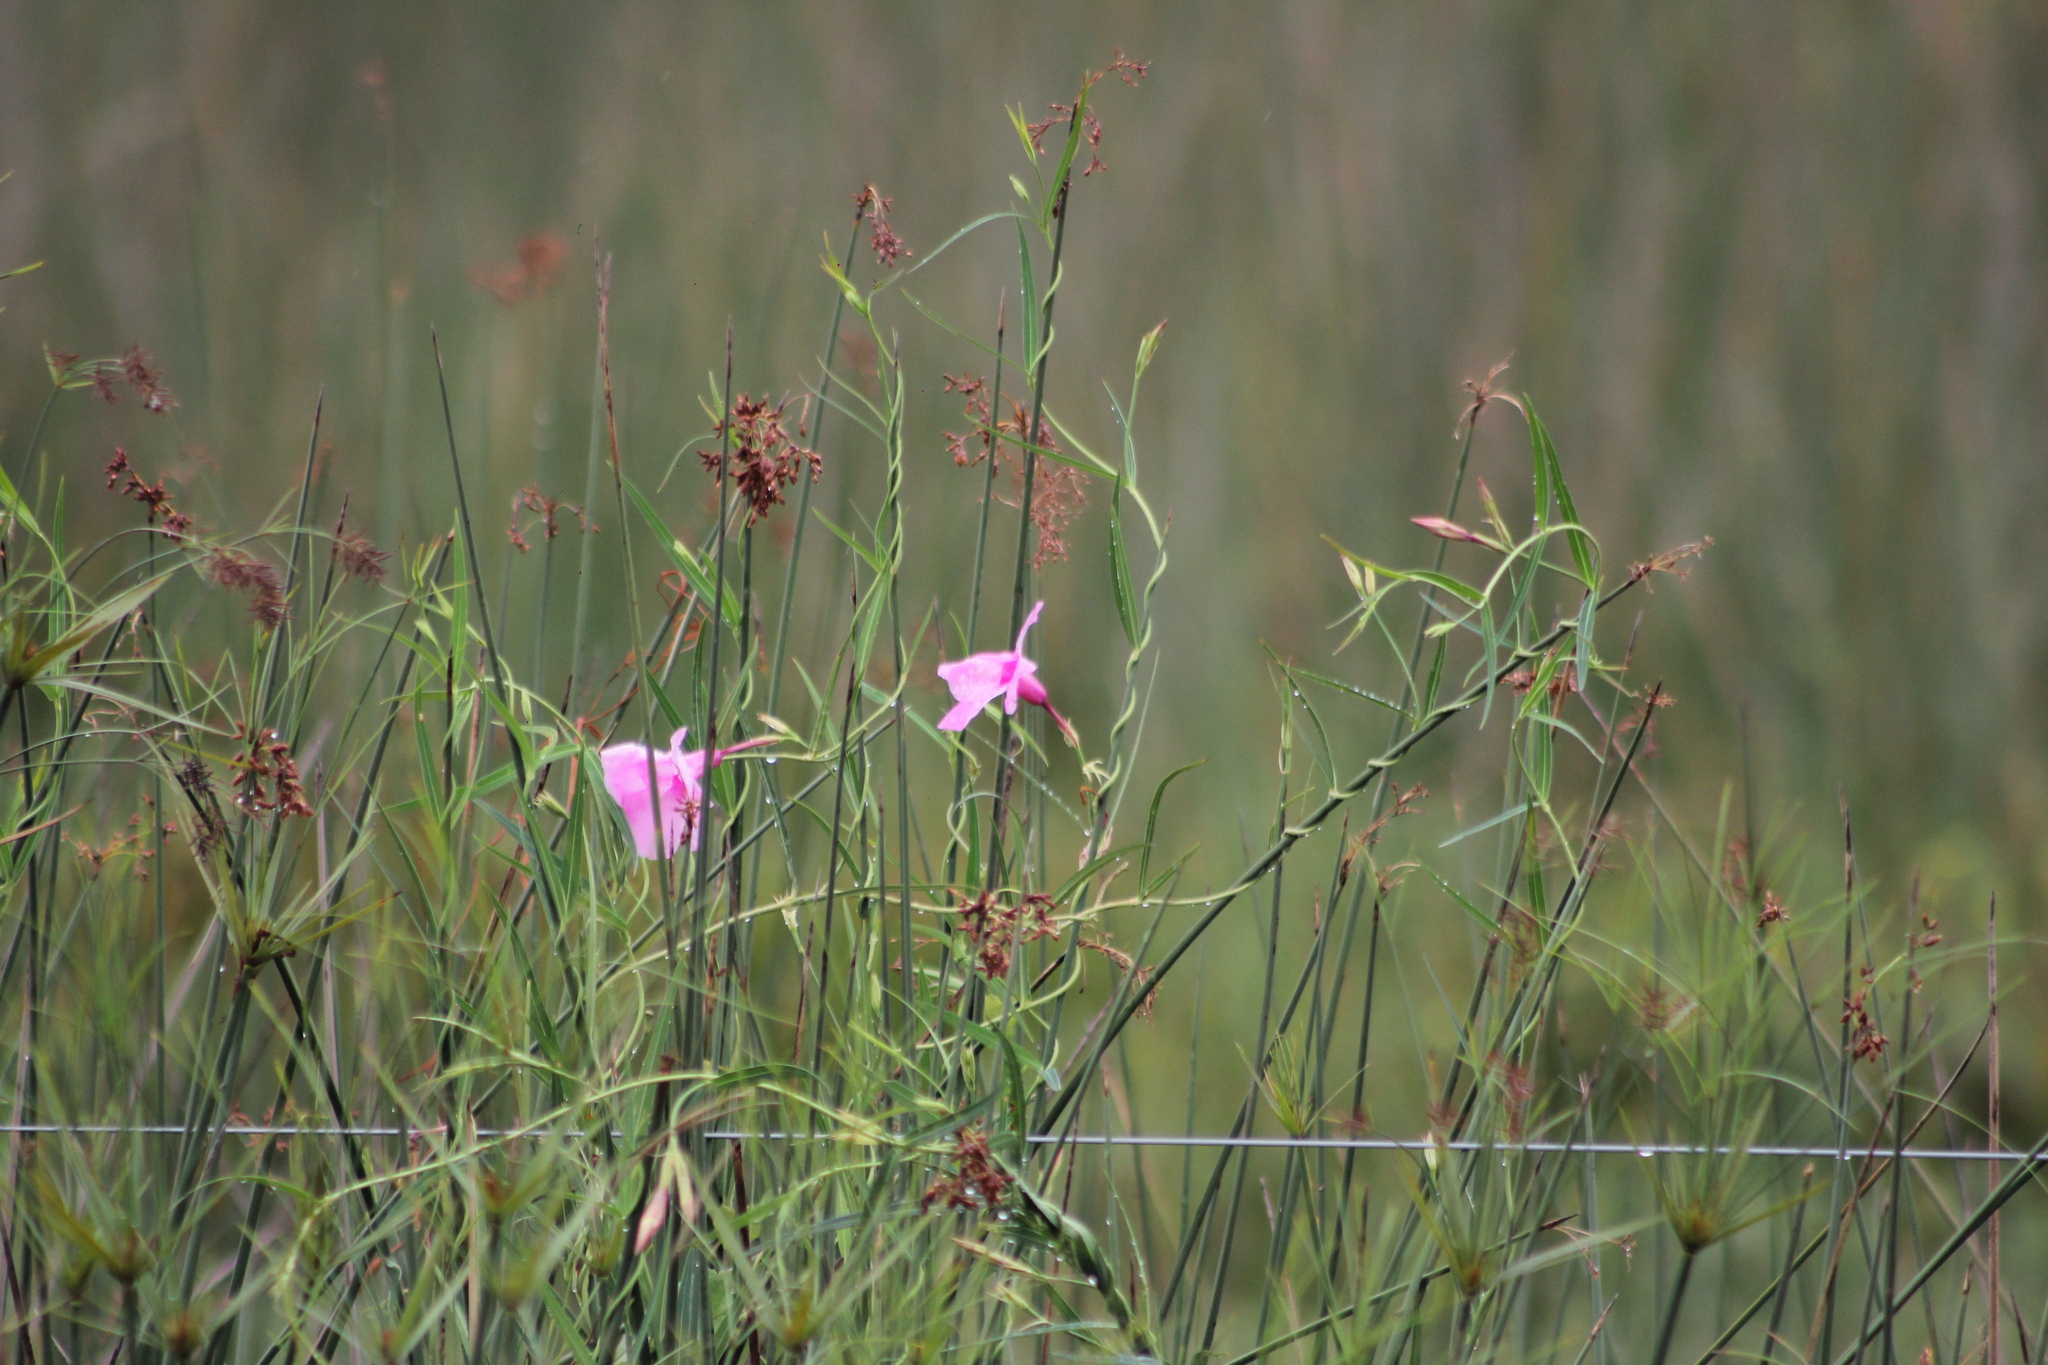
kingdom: Plantae
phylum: Tracheophyta
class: Magnoliopsida
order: Gentianales
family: Apocynaceae
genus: Rhabdadenia
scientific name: Rhabdadenia ragonesei
